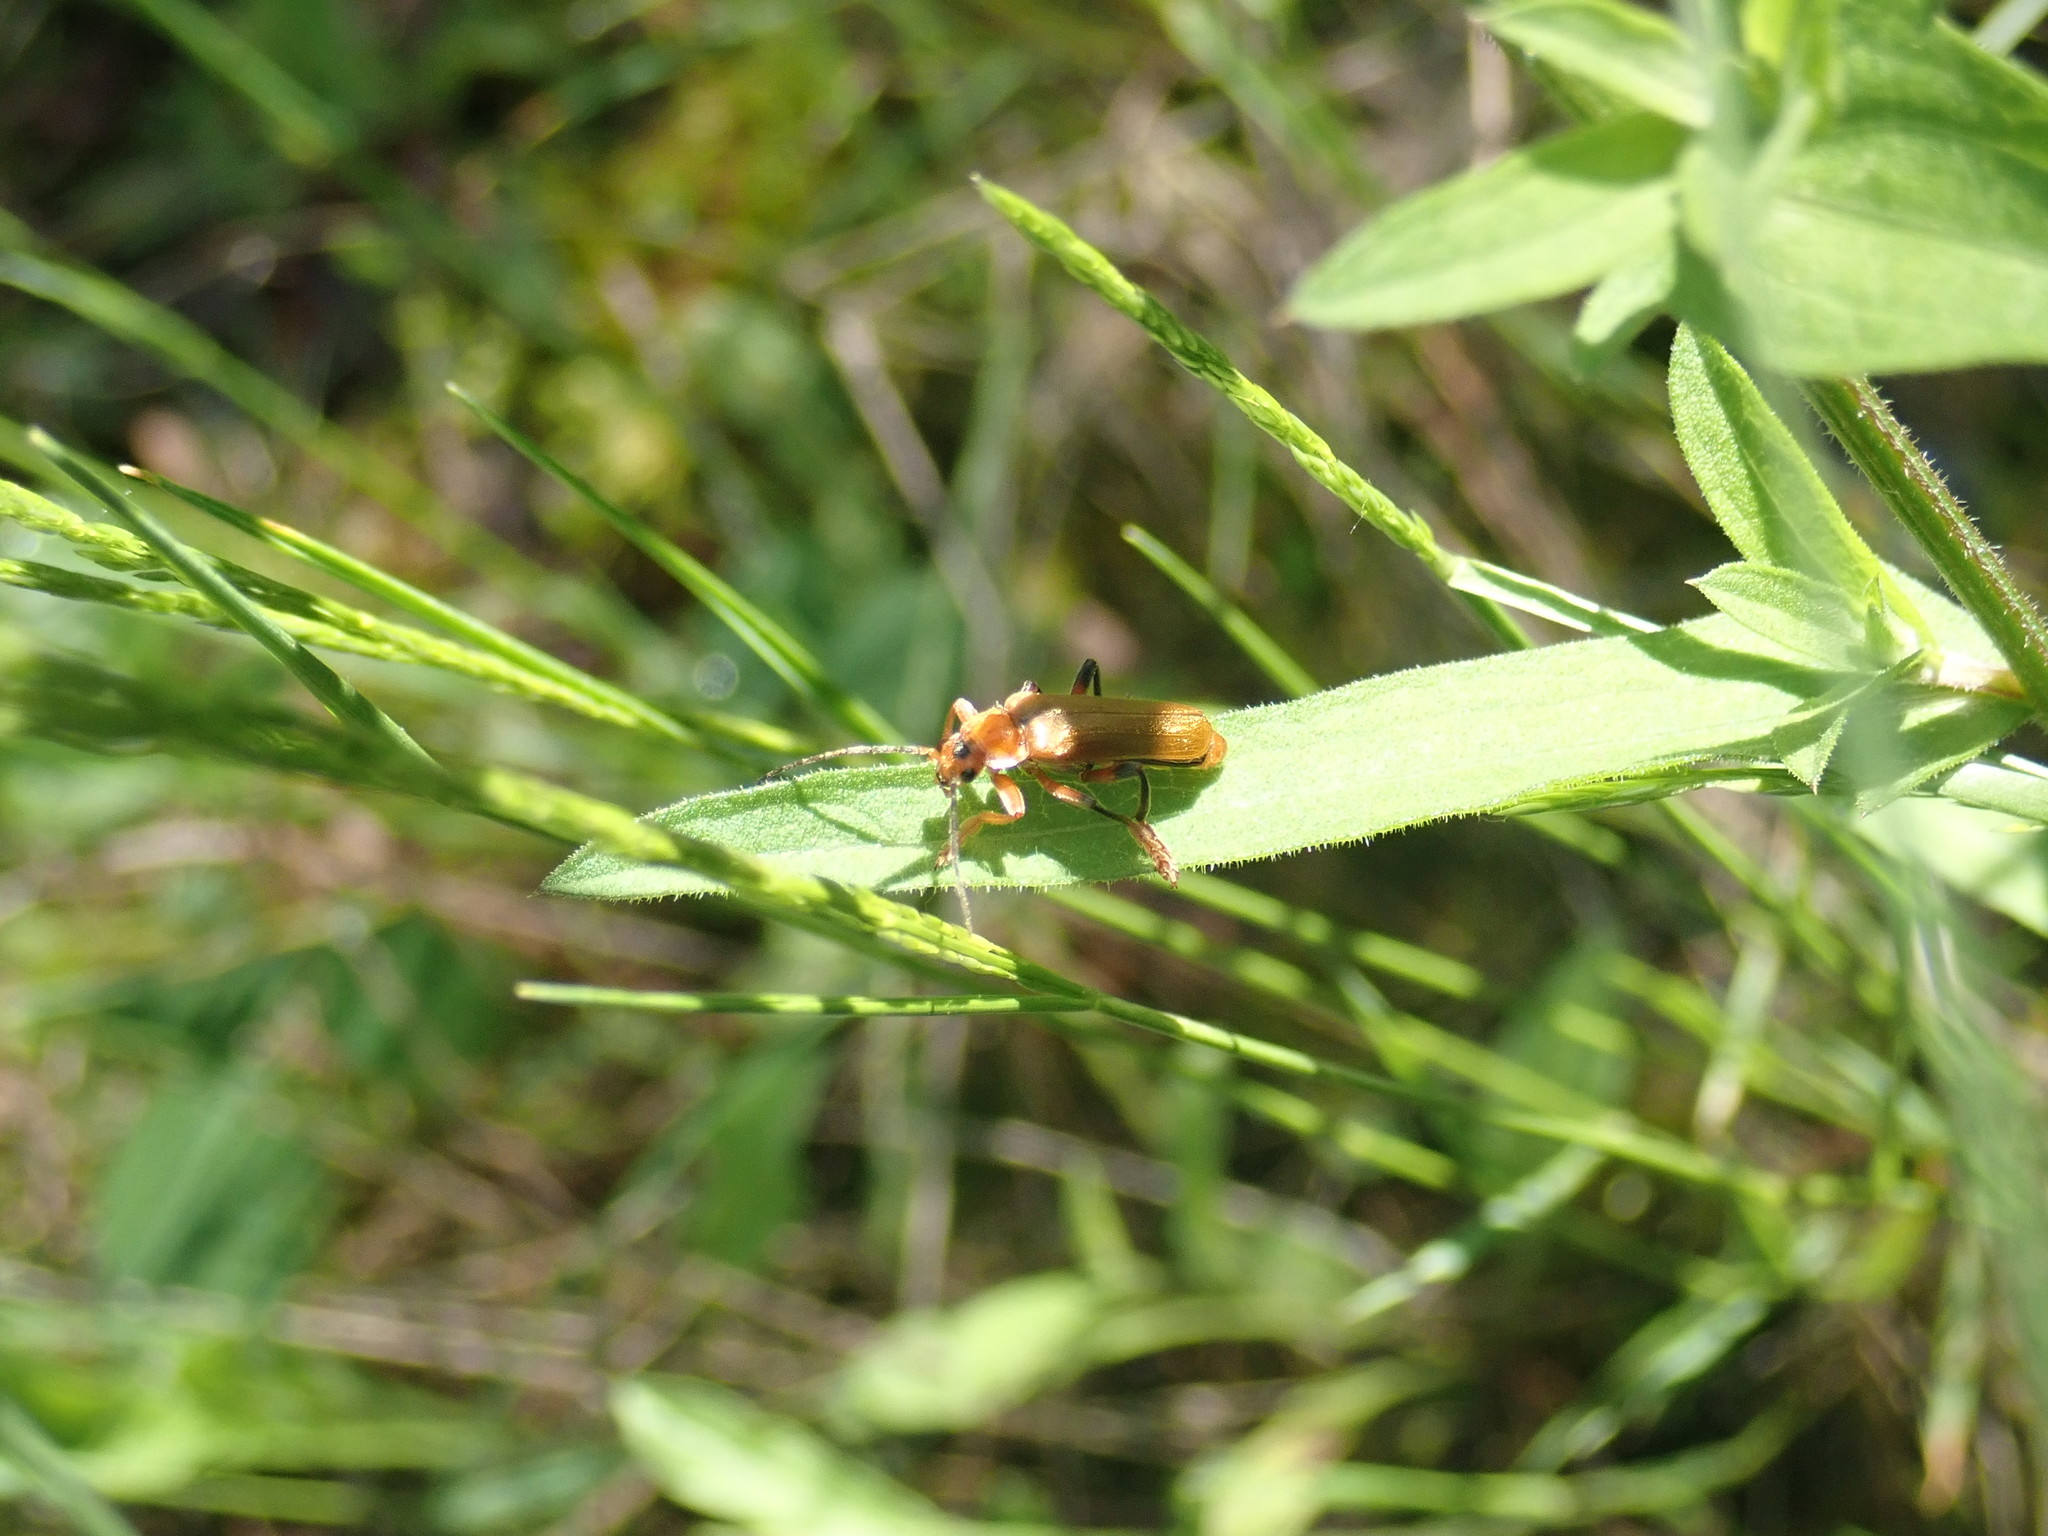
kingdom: Animalia
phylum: Arthropoda
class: Insecta
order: Coleoptera
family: Cantharidae
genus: Cantharis
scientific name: Cantharis livida
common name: Livid soldier beetle
